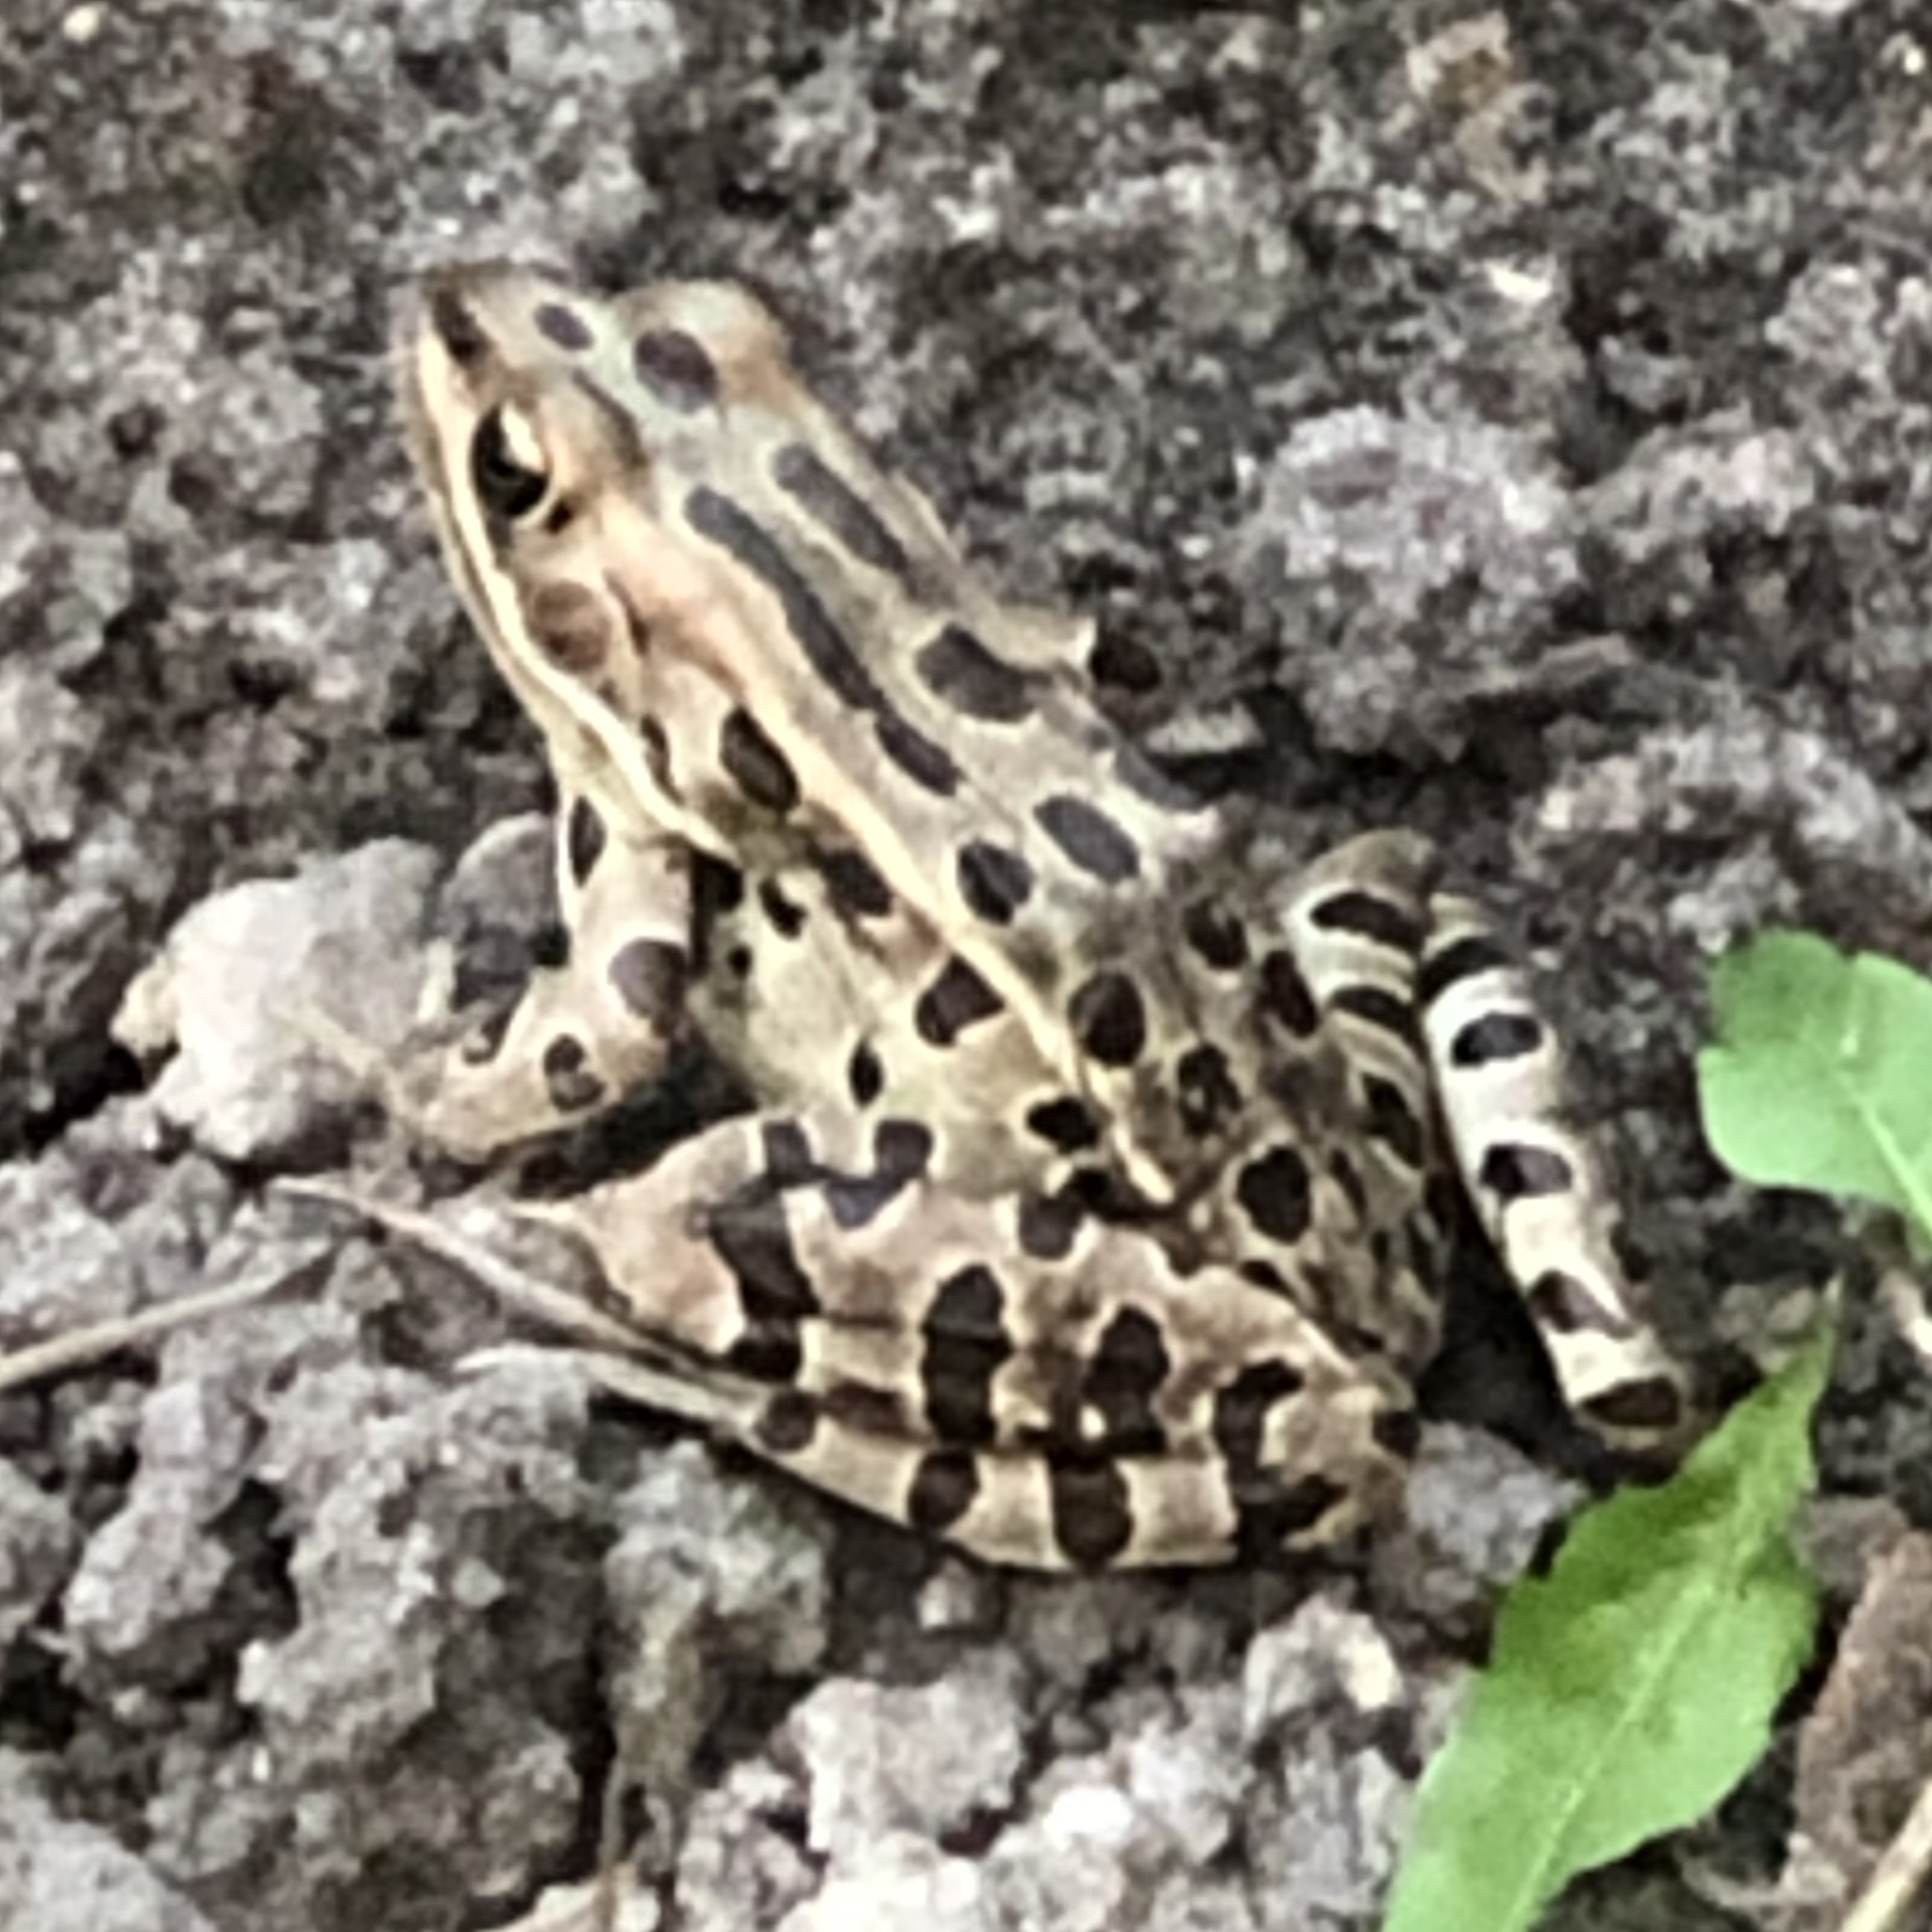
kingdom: Animalia
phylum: Chordata
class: Amphibia
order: Anura
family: Ranidae
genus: Lithobates
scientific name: Lithobates pipiens
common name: Northern leopard frog
